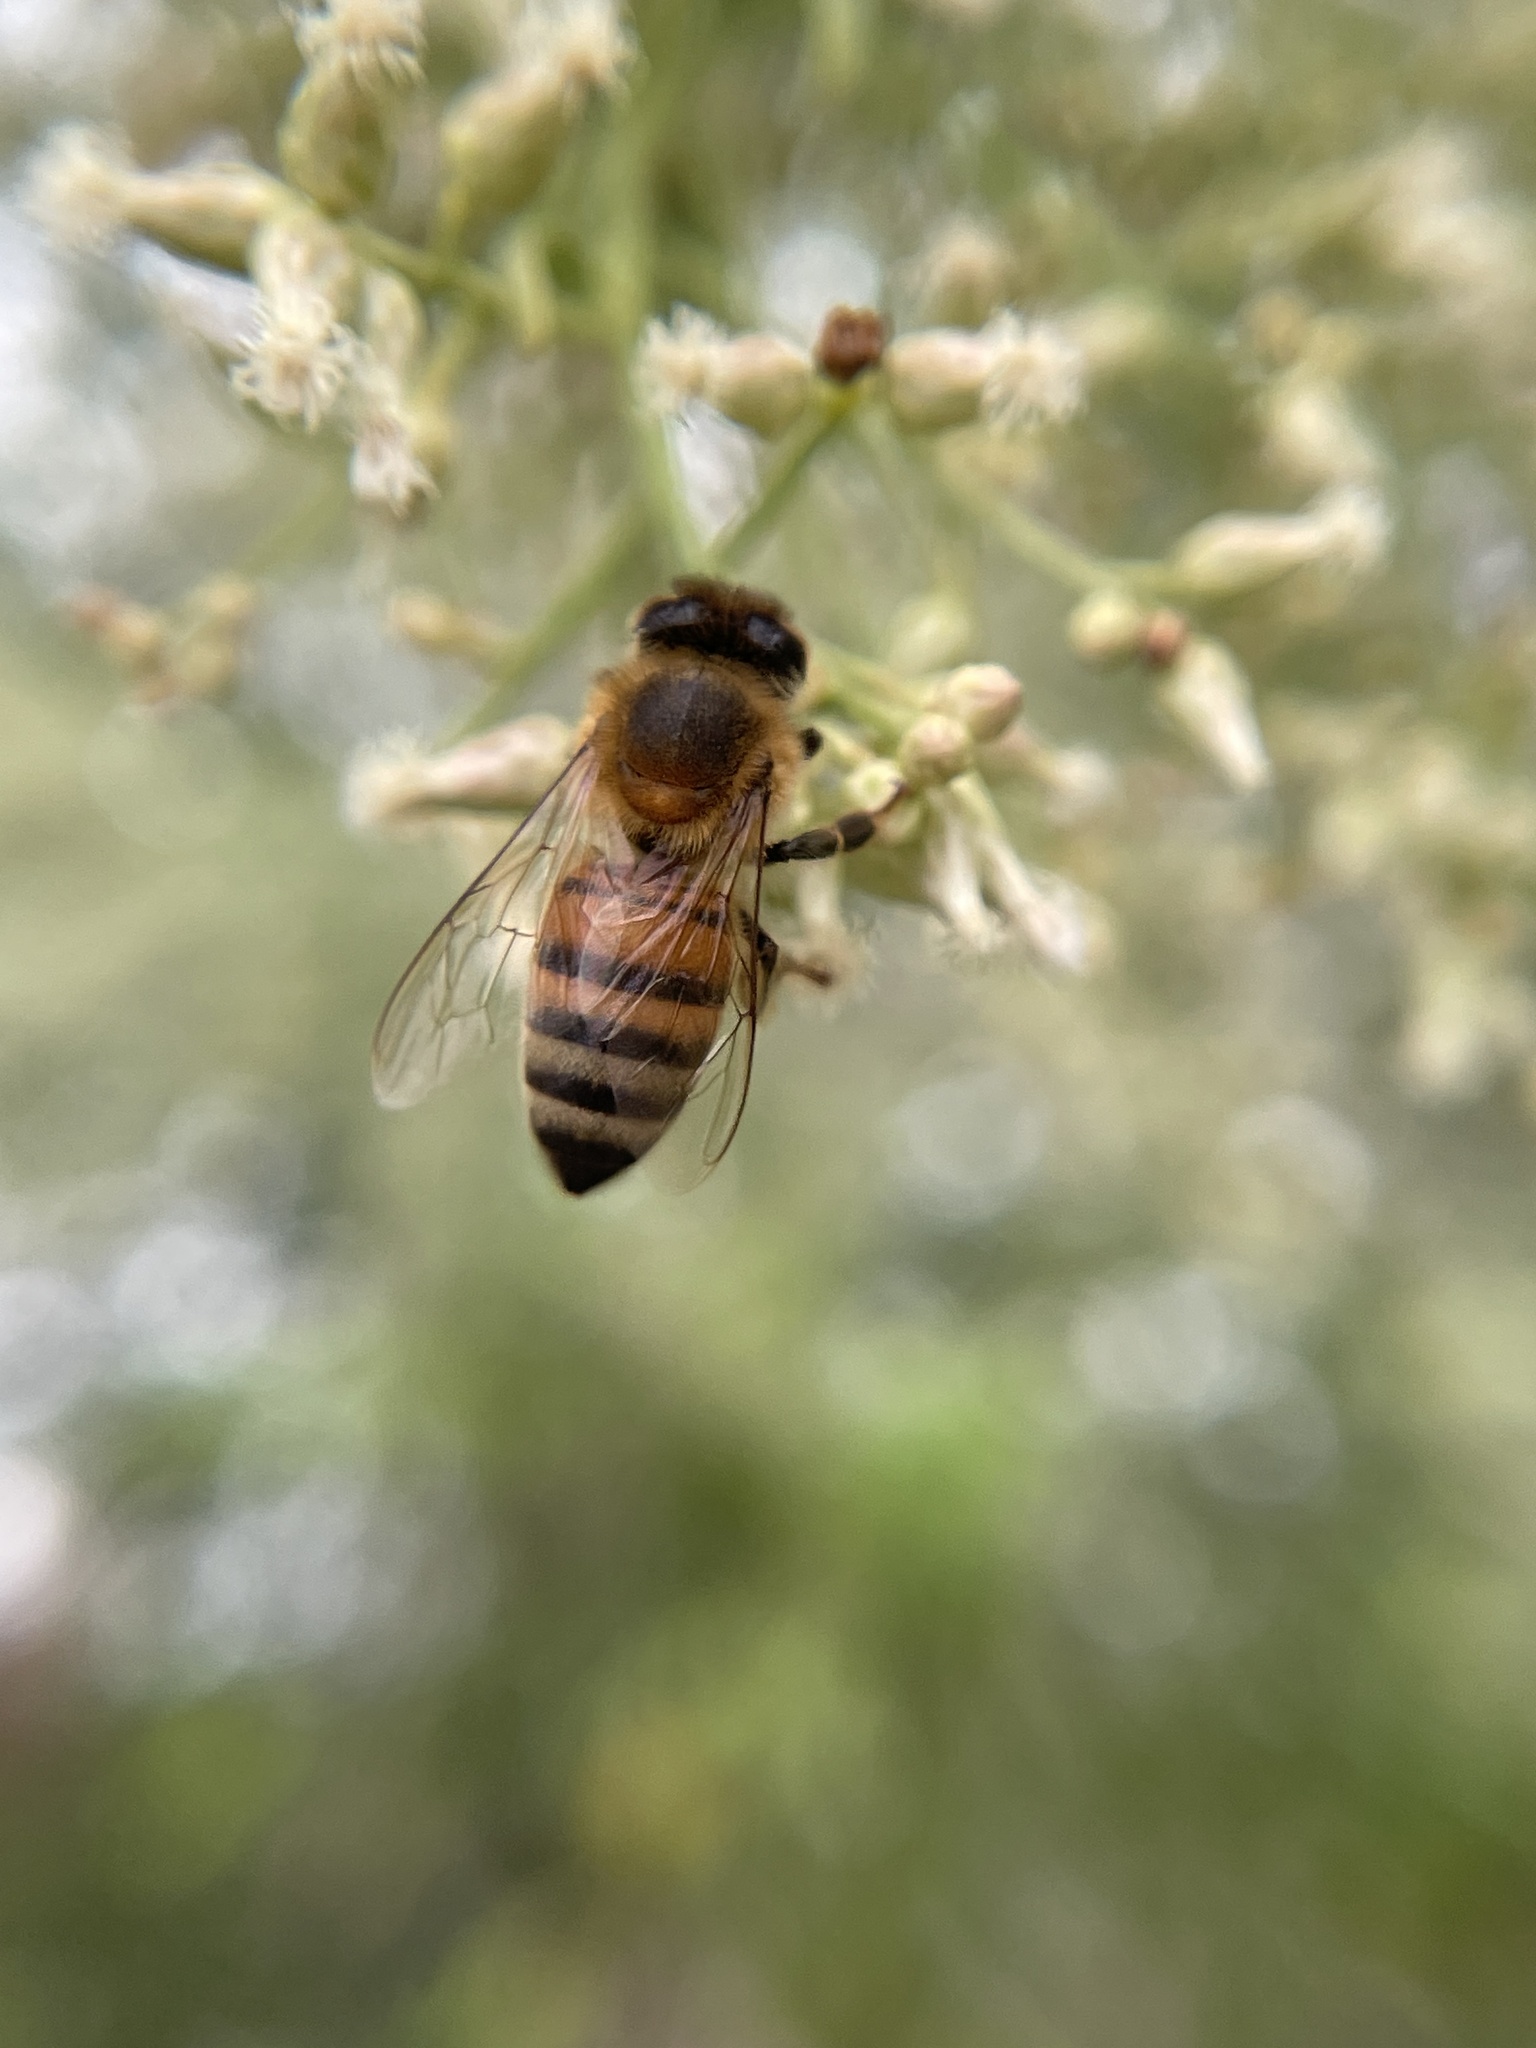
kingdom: Animalia
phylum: Arthropoda
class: Insecta
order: Hymenoptera
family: Apidae
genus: Apis
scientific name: Apis mellifera
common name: Honey bee
